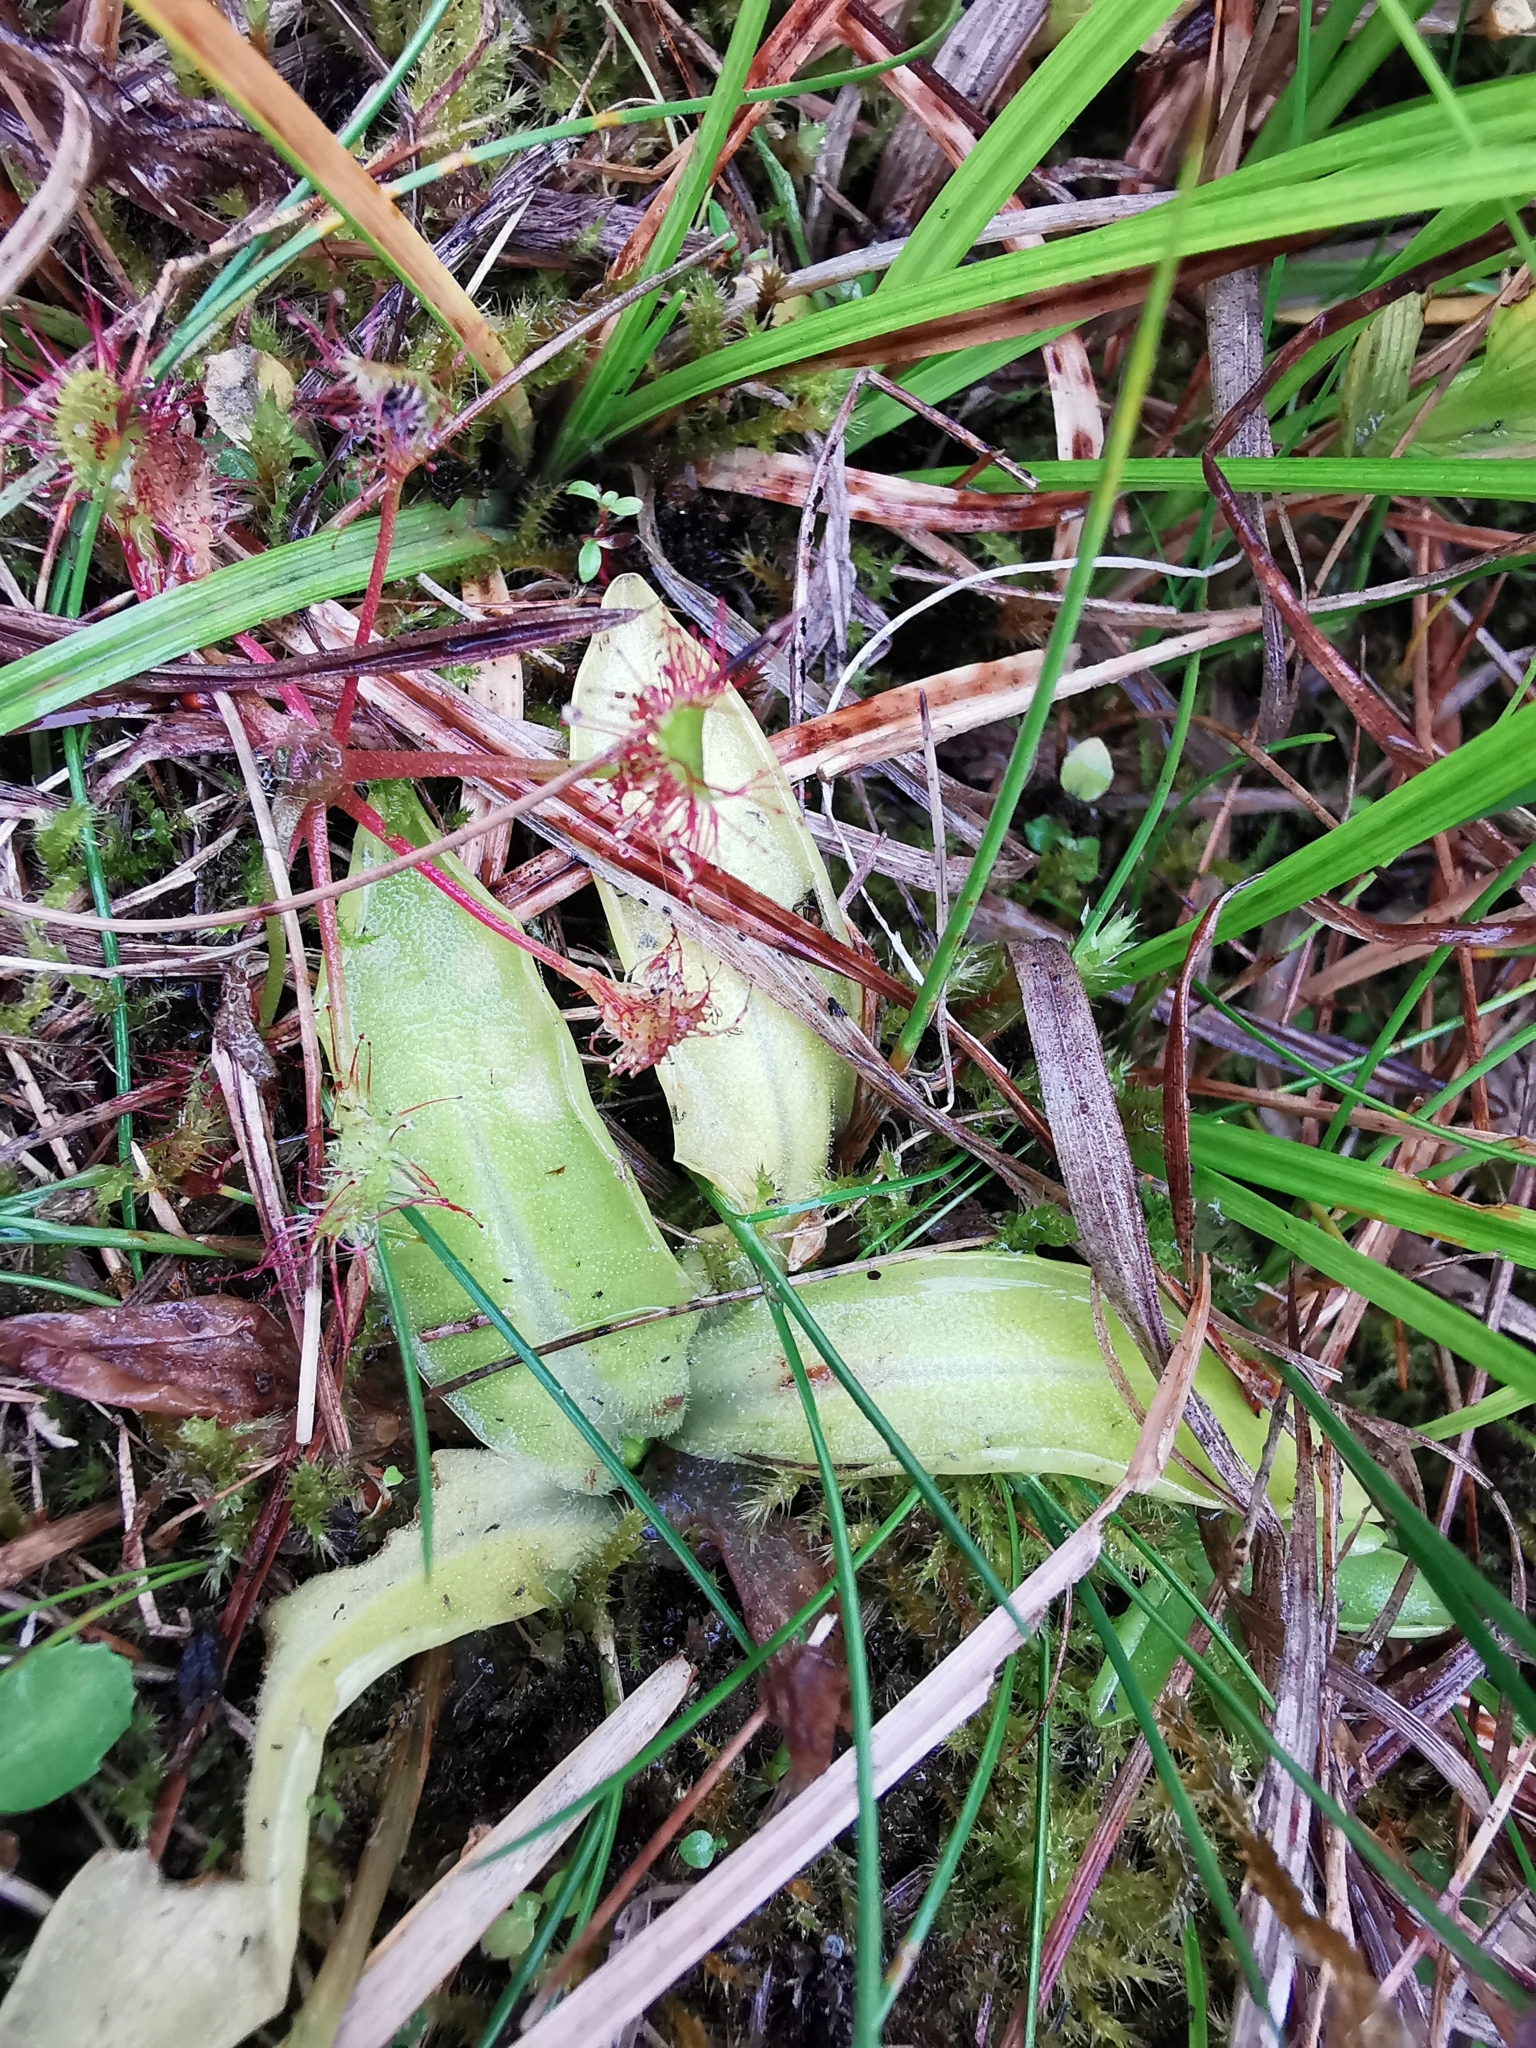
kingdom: Plantae
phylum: Tracheophyta
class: Magnoliopsida
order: Lamiales
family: Lentibulariaceae
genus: Pinguicula
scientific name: Pinguicula vulgaris
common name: Common butterwort
